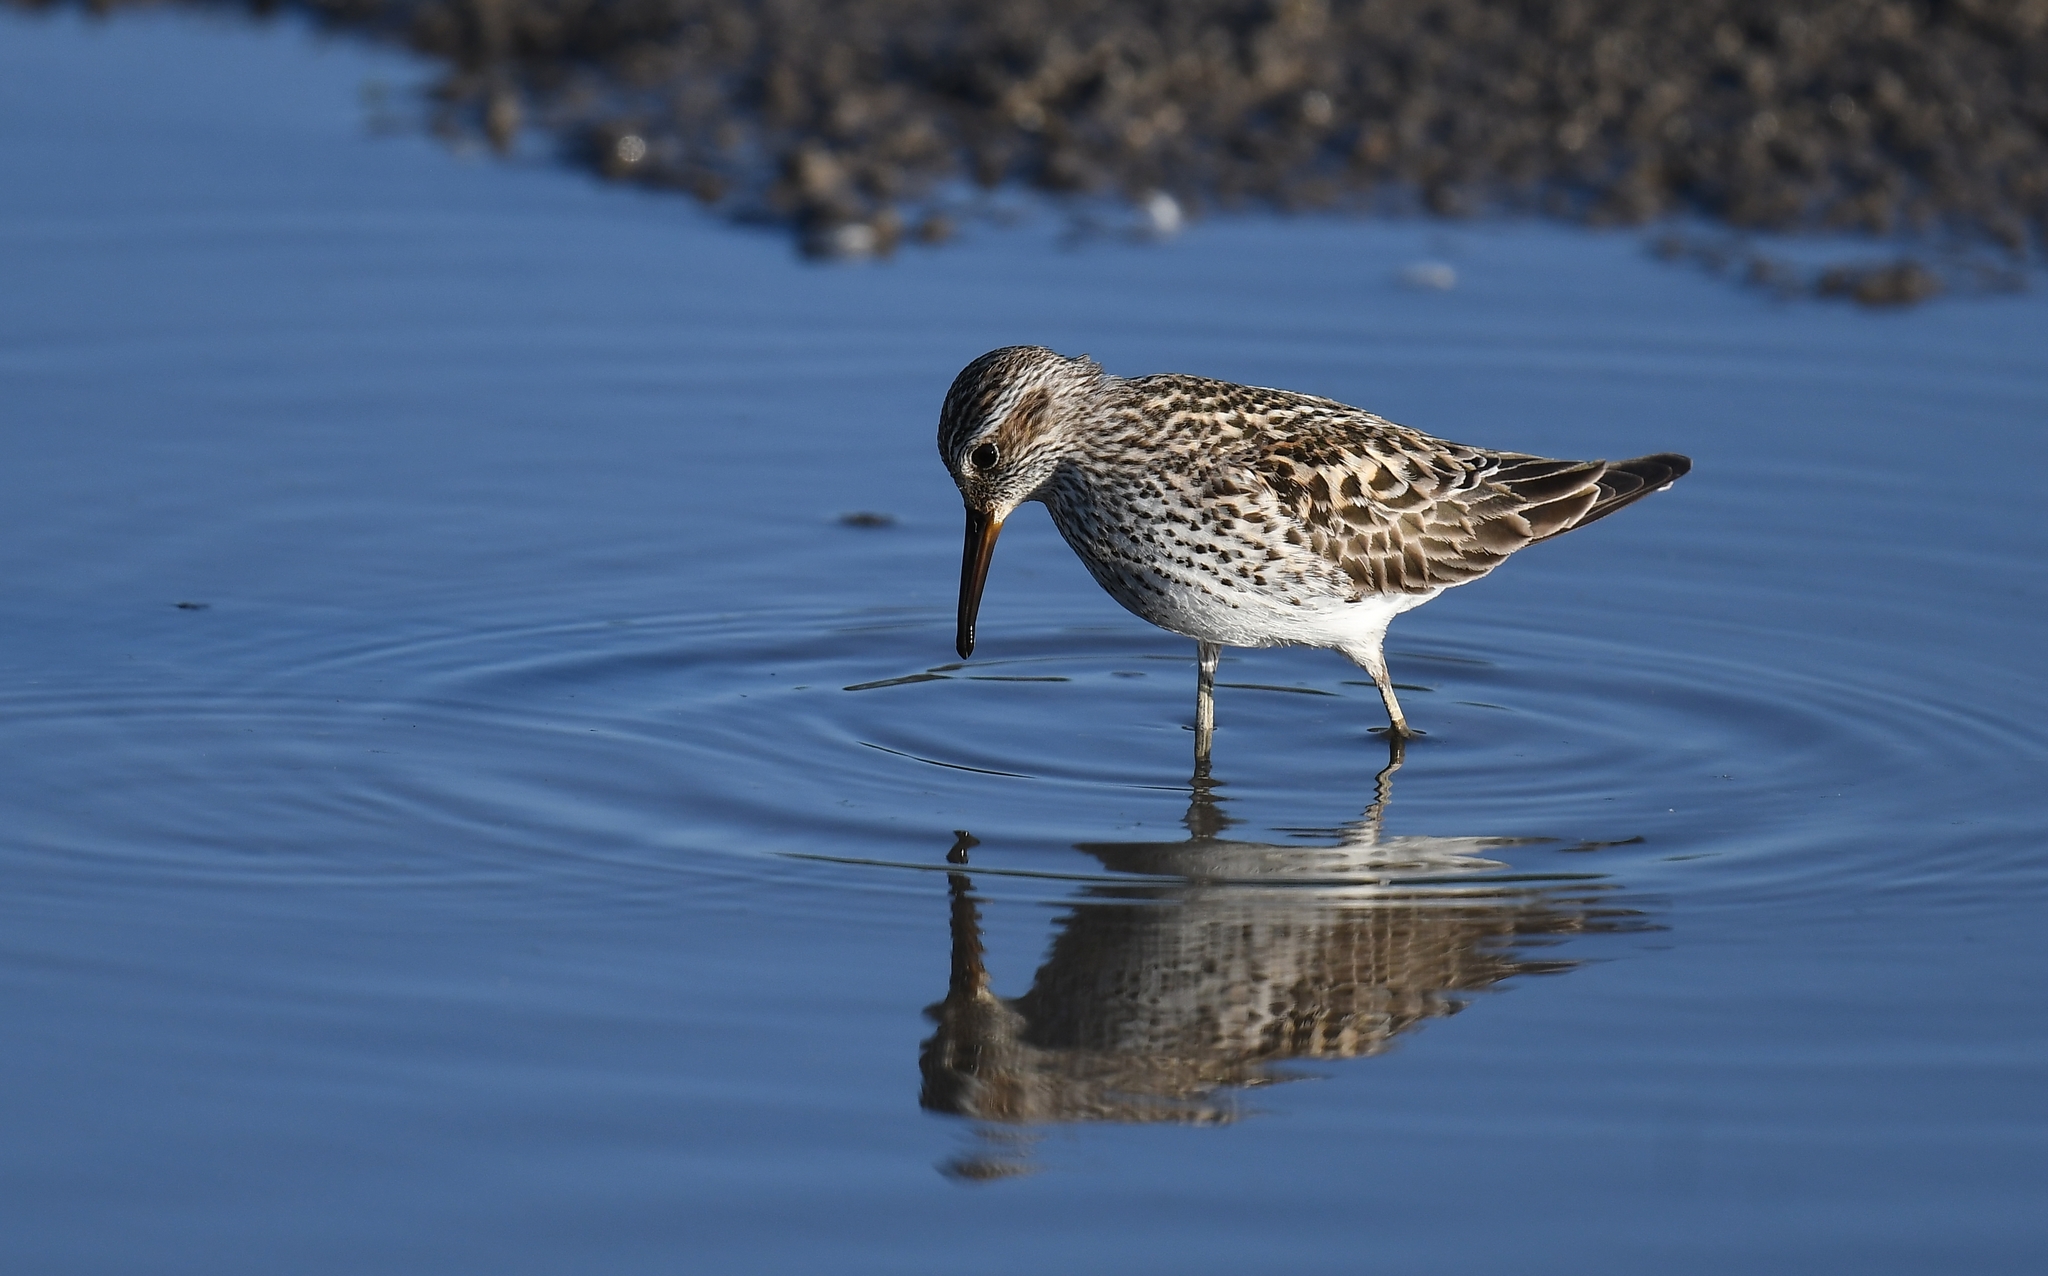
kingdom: Animalia
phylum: Chordata
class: Aves
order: Charadriiformes
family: Scolopacidae
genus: Calidris
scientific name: Calidris fuscicollis
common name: White-rumped sandpiper
